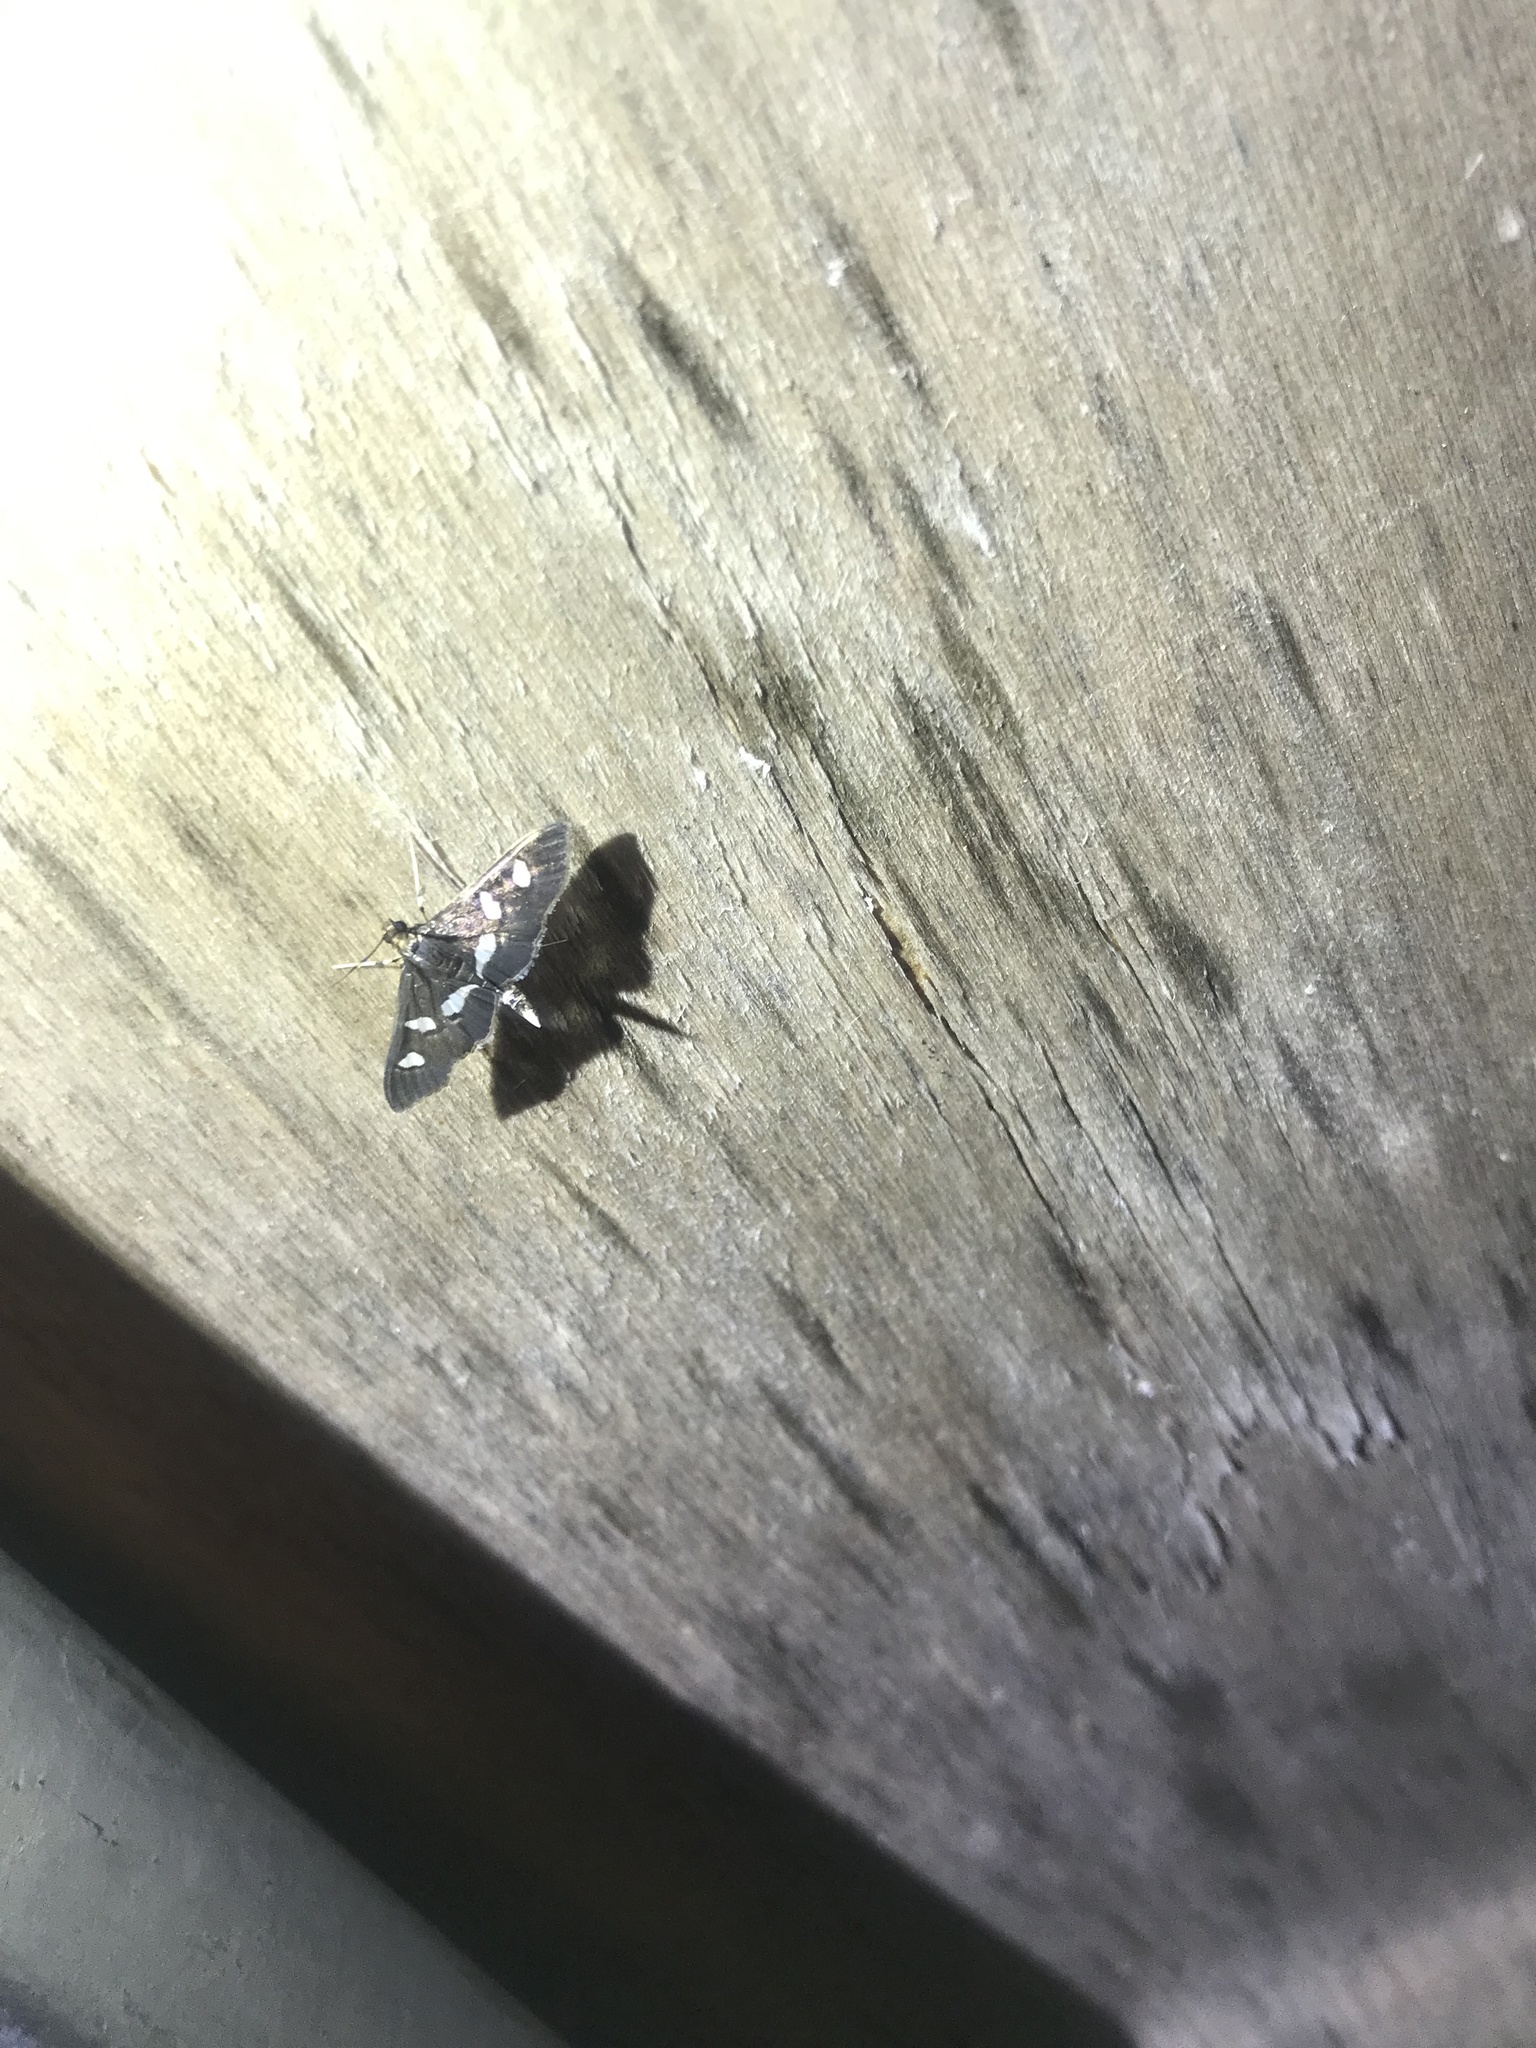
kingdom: Animalia
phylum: Arthropoda
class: Insecta
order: Lepidoptera
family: Crambidae
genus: Desmia
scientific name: Desmia
